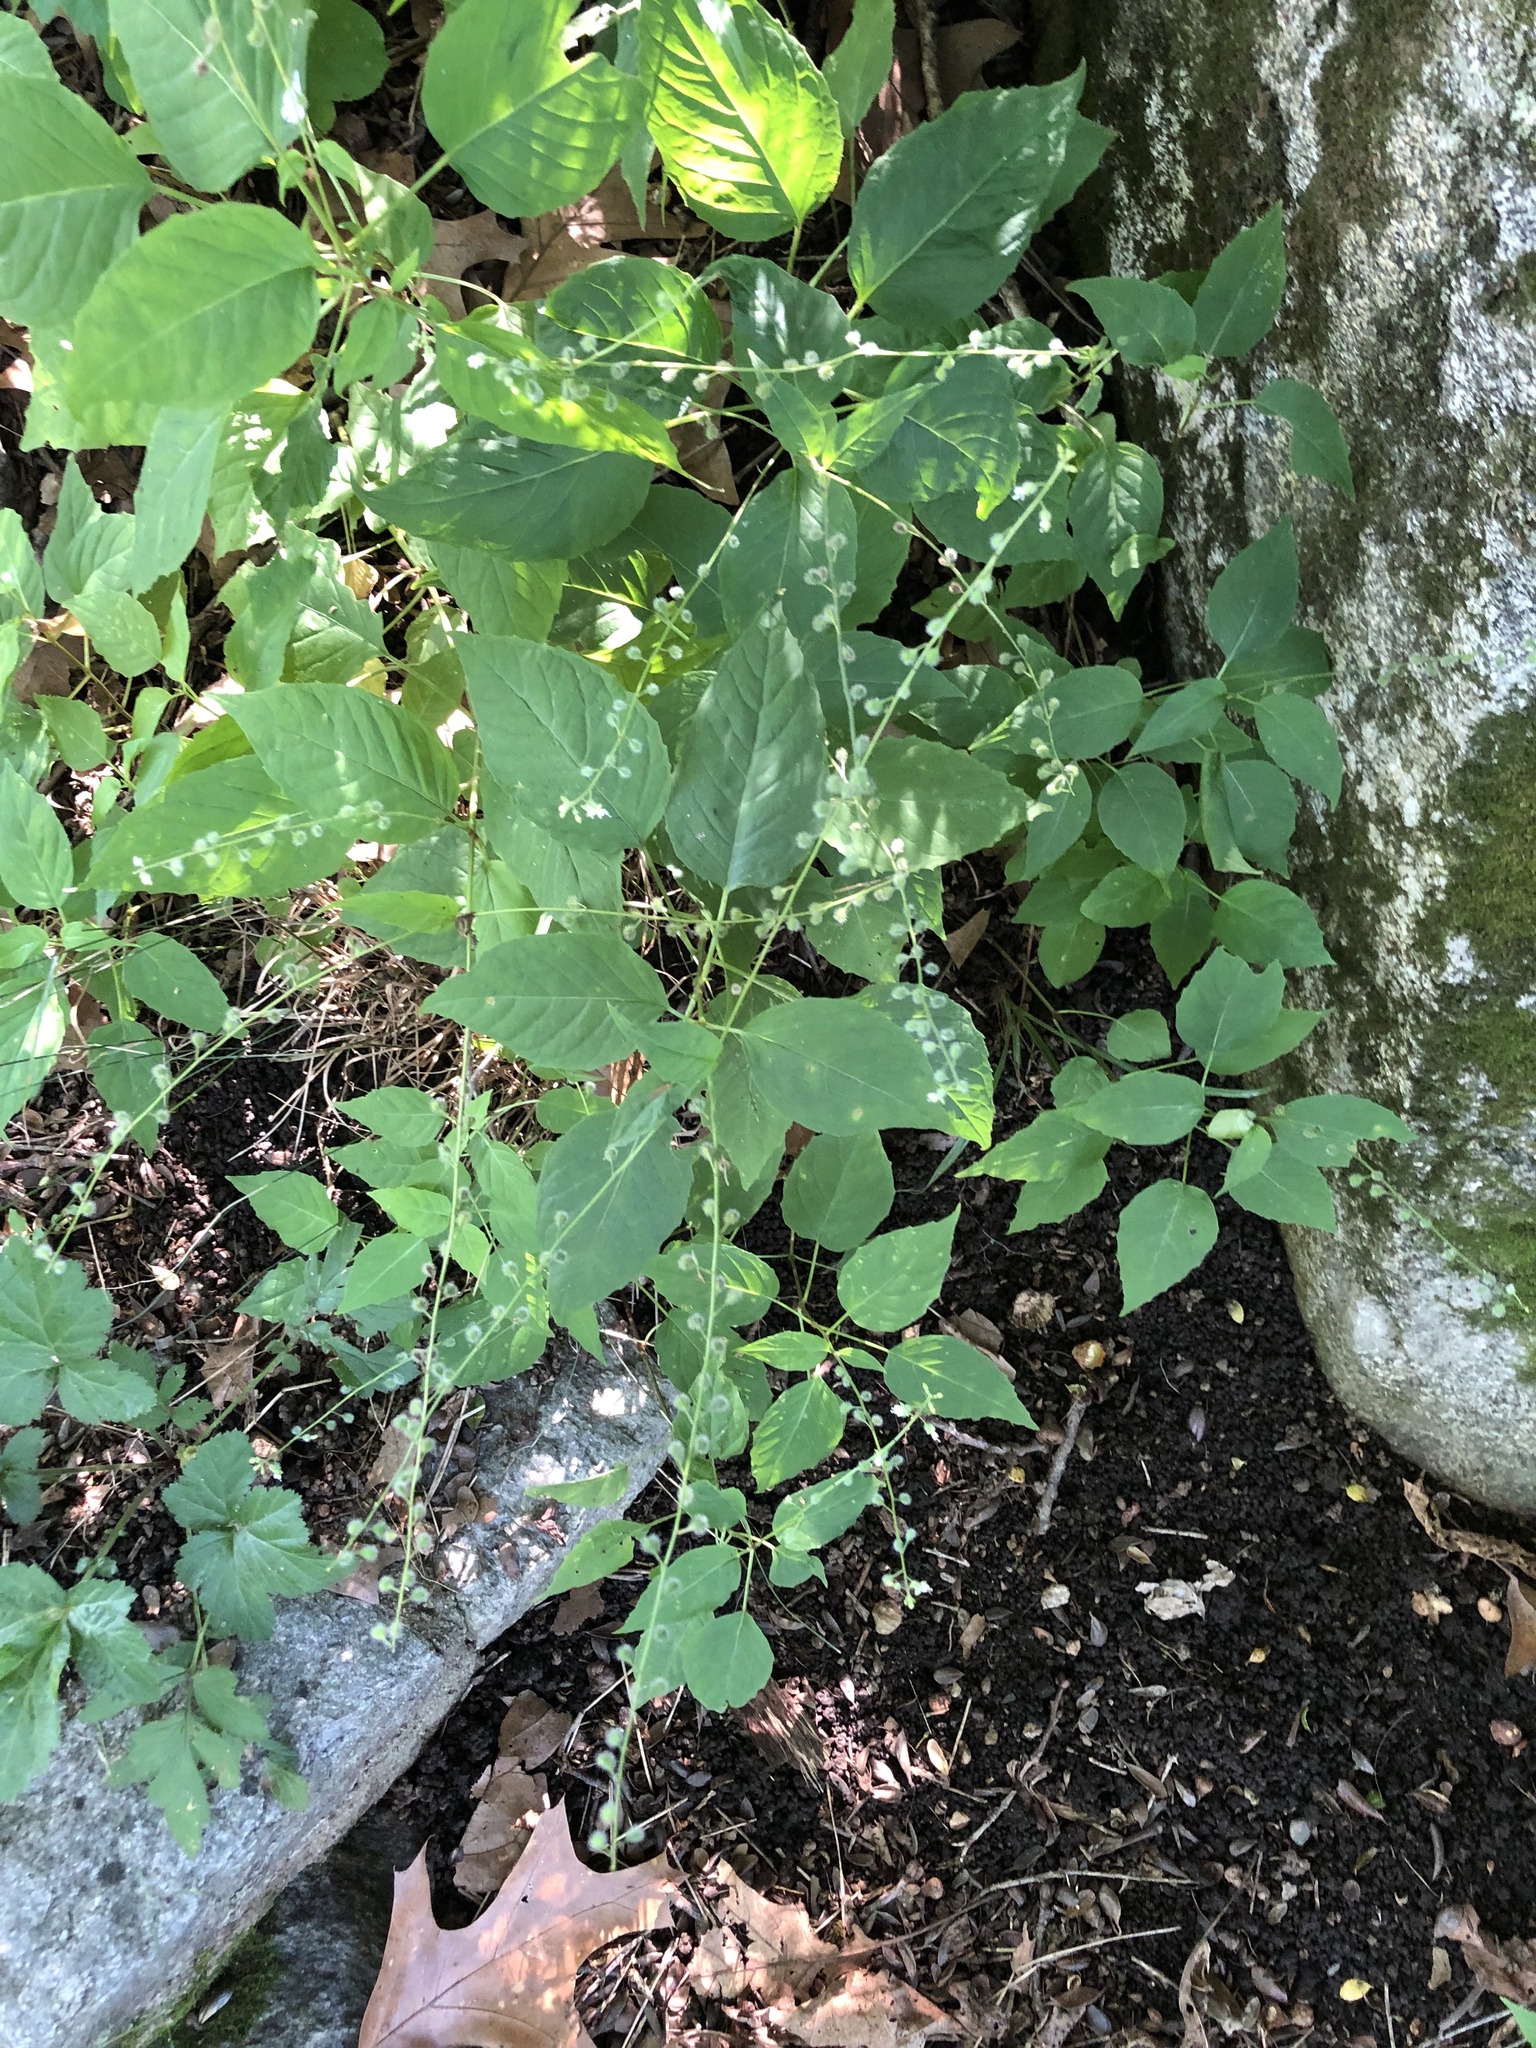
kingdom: Plantae
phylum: Tracheophyta
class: Magnoliopsida
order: Myrtales
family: Onagraceae
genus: Circaea
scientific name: Circaea canadensis
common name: Broad-leaved enchanter's nightshade
